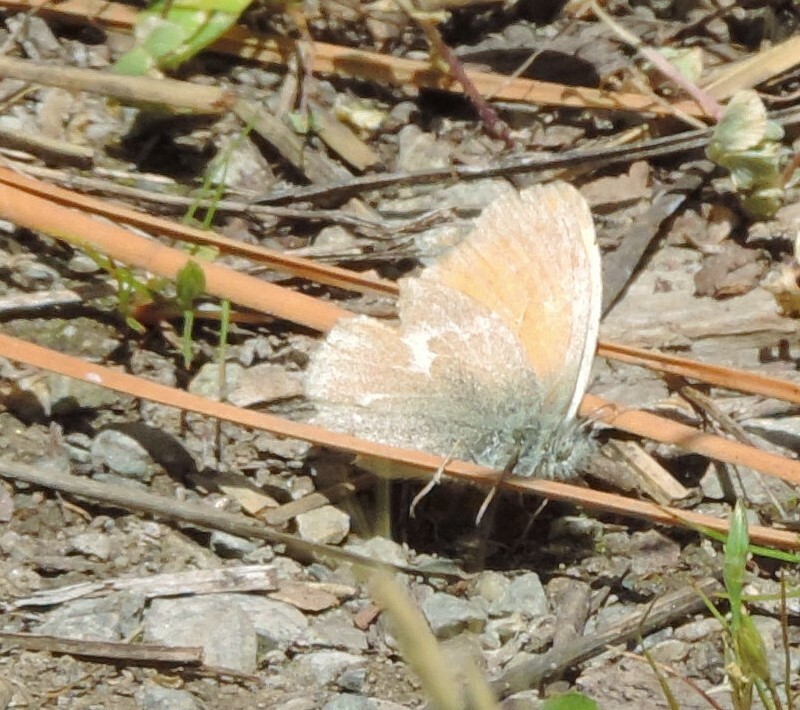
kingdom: Animalia
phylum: Arthropoda
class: Insecta
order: Lepidoptera
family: Nymphalidae
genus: Coenonympha
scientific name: Coenonympha california
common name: Common ringlet
